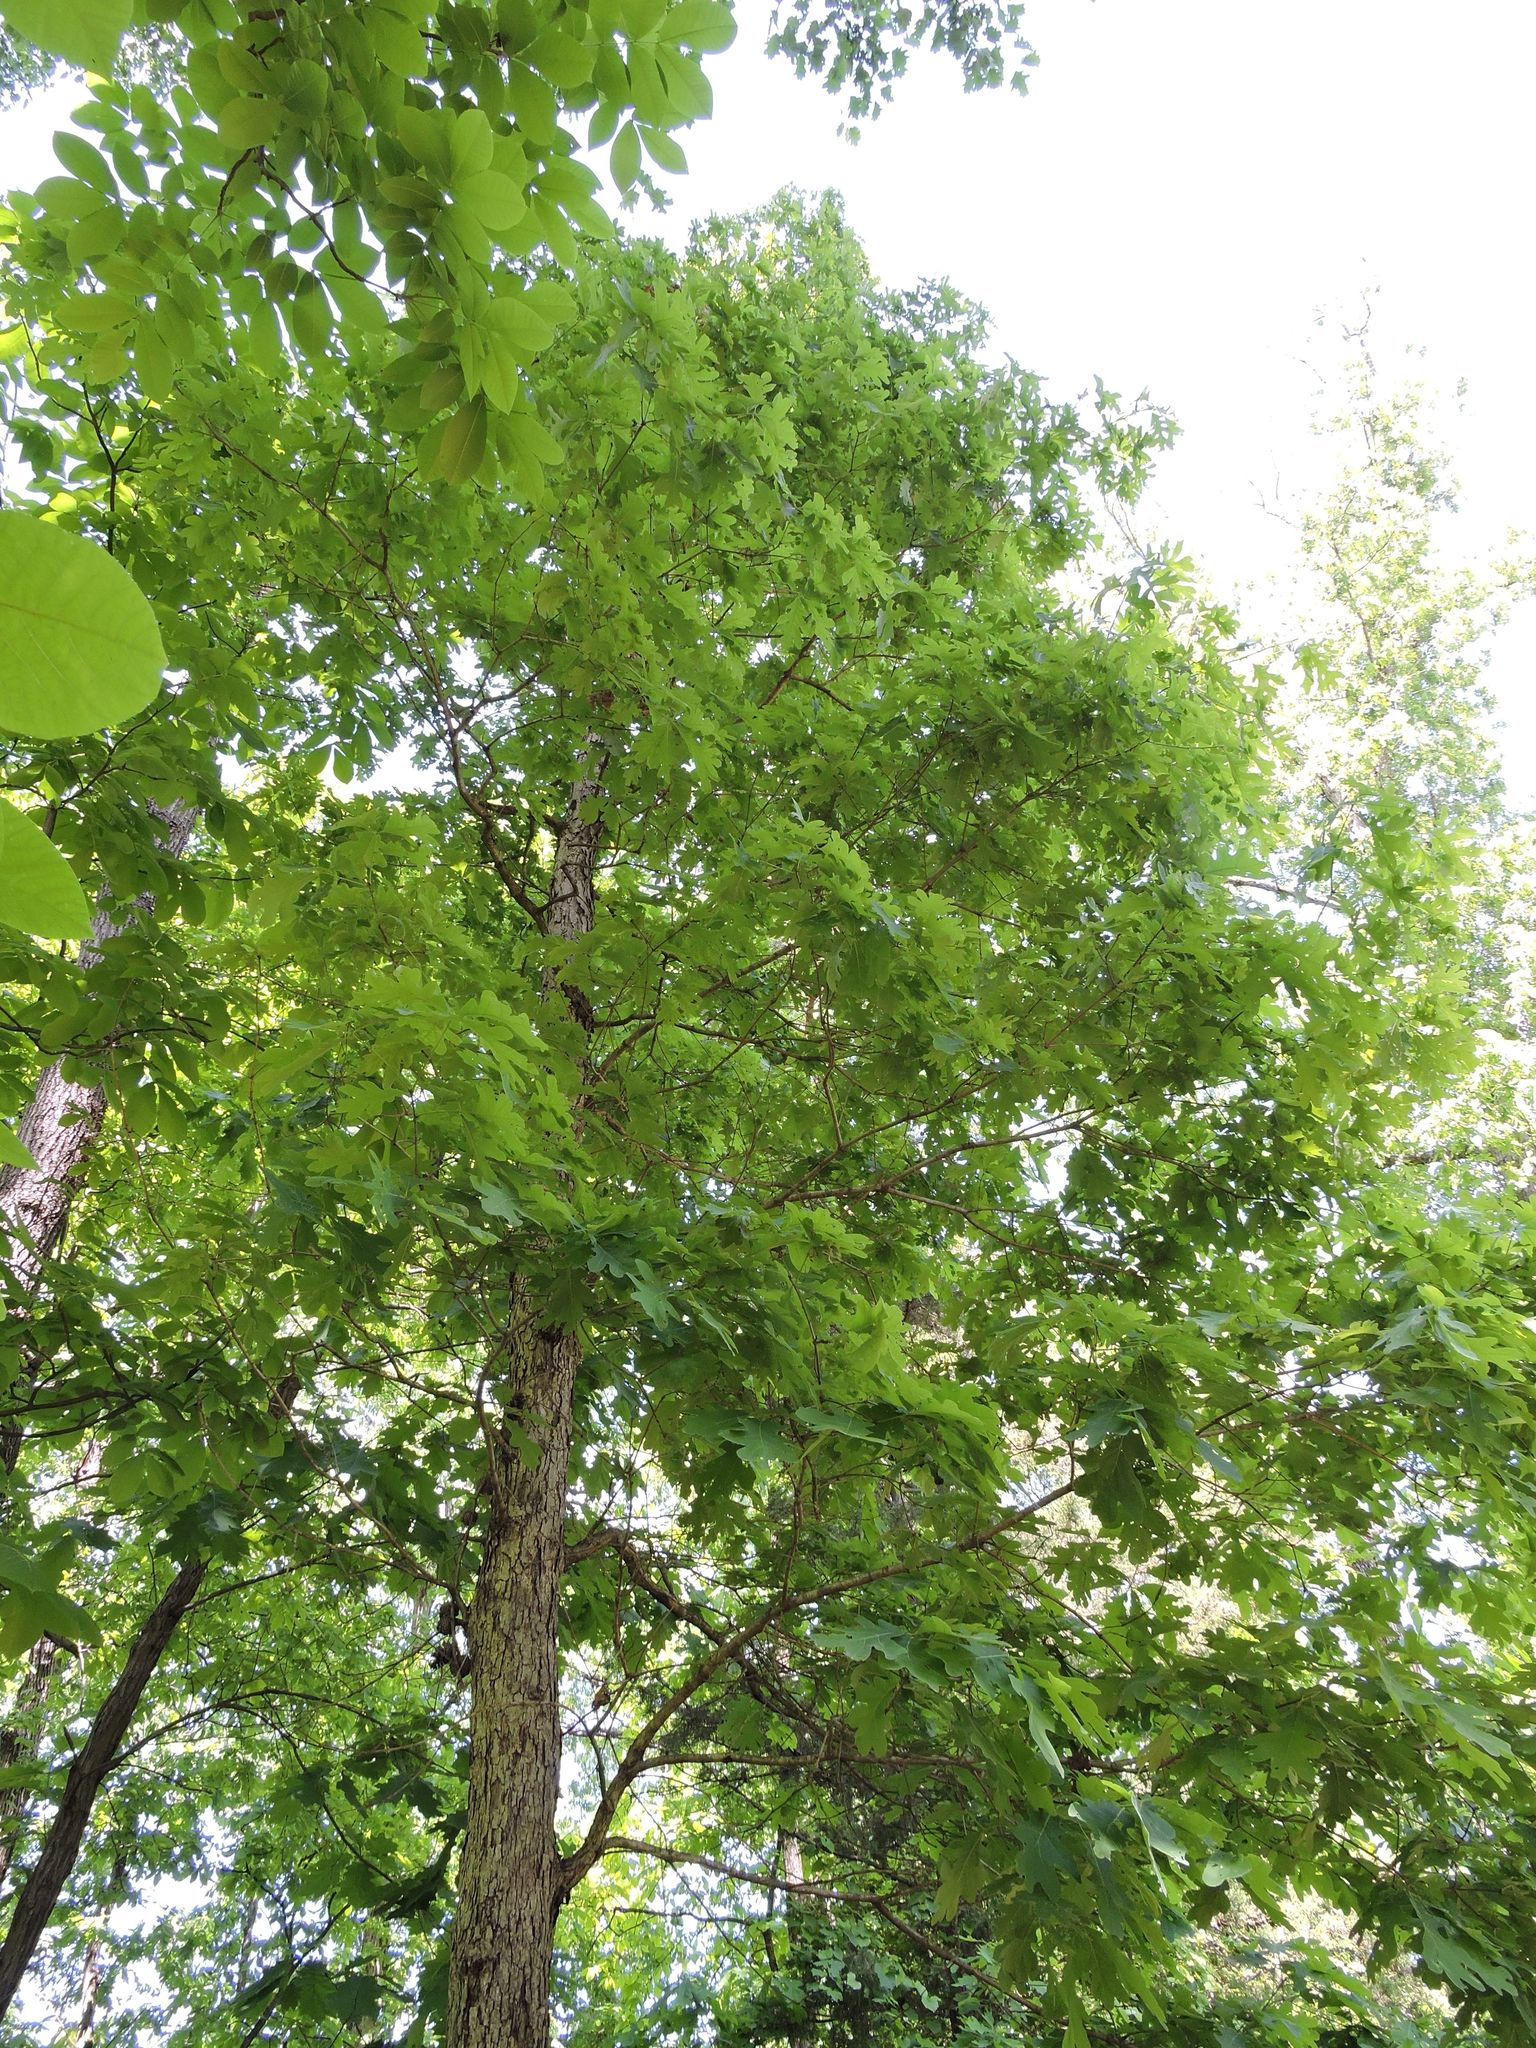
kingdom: Plantae
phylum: Tracheophyta
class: Magnoliopsida
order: Fagales
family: Fagaceae
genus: Quercus
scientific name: Quercus alba
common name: White oak
